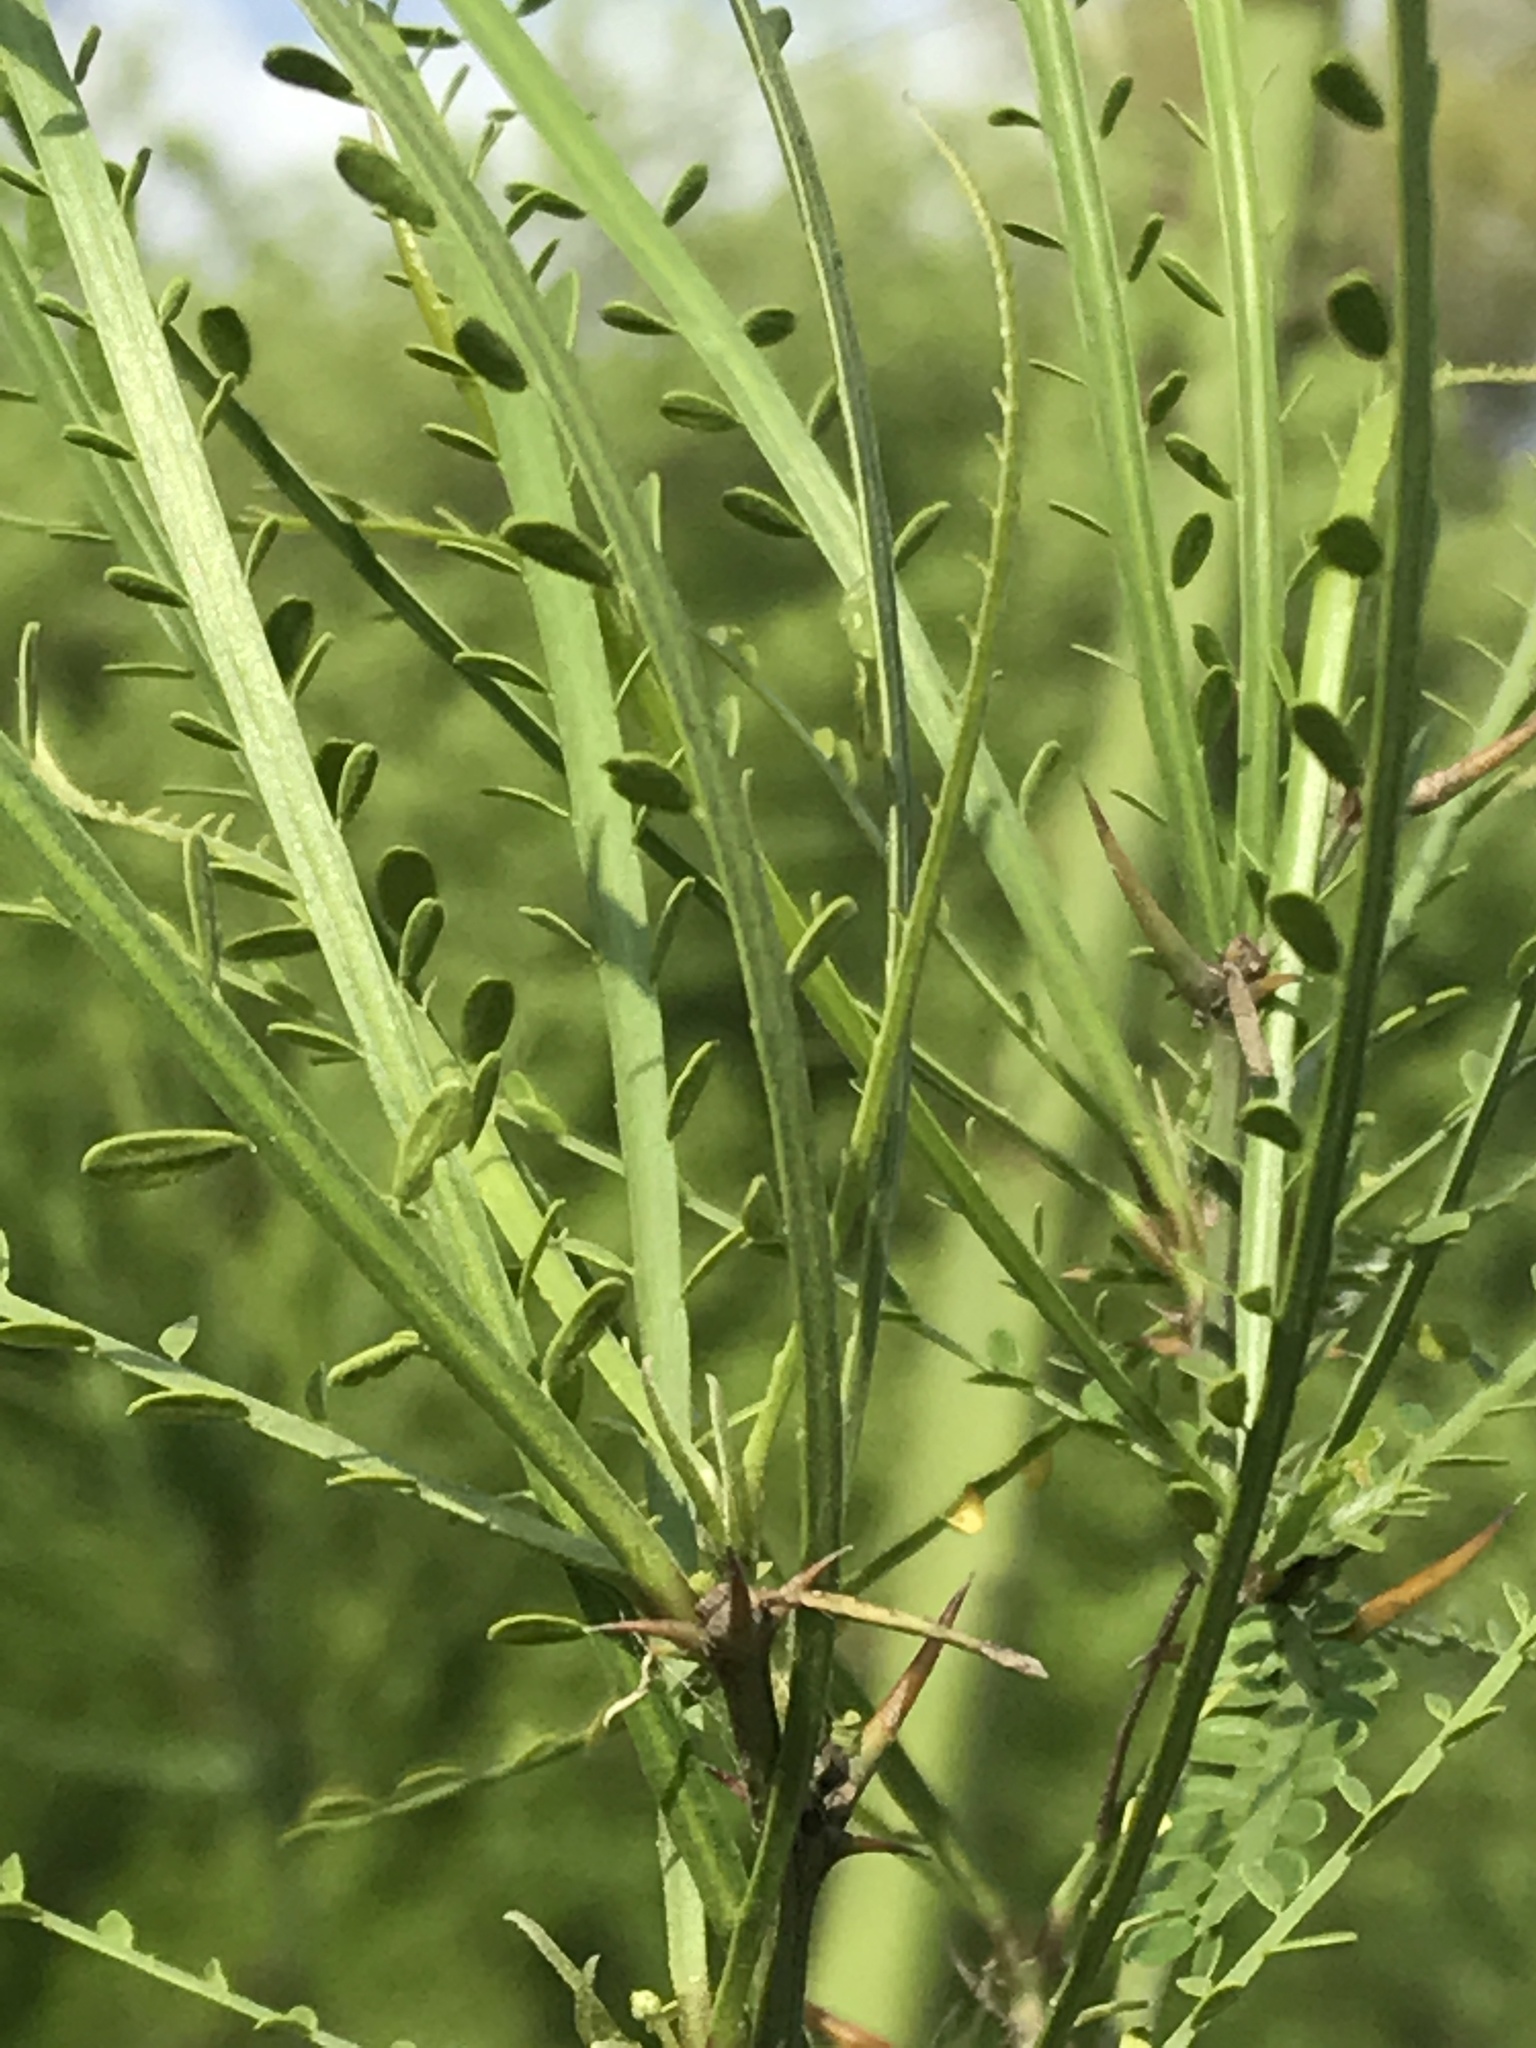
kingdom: Plantae
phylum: Tracheophyta
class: Magnoliopsida
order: Fabales
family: Fabaceae
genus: Parkinsonia
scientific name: Parkinsonia aculeata
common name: Jerusalem thorn
